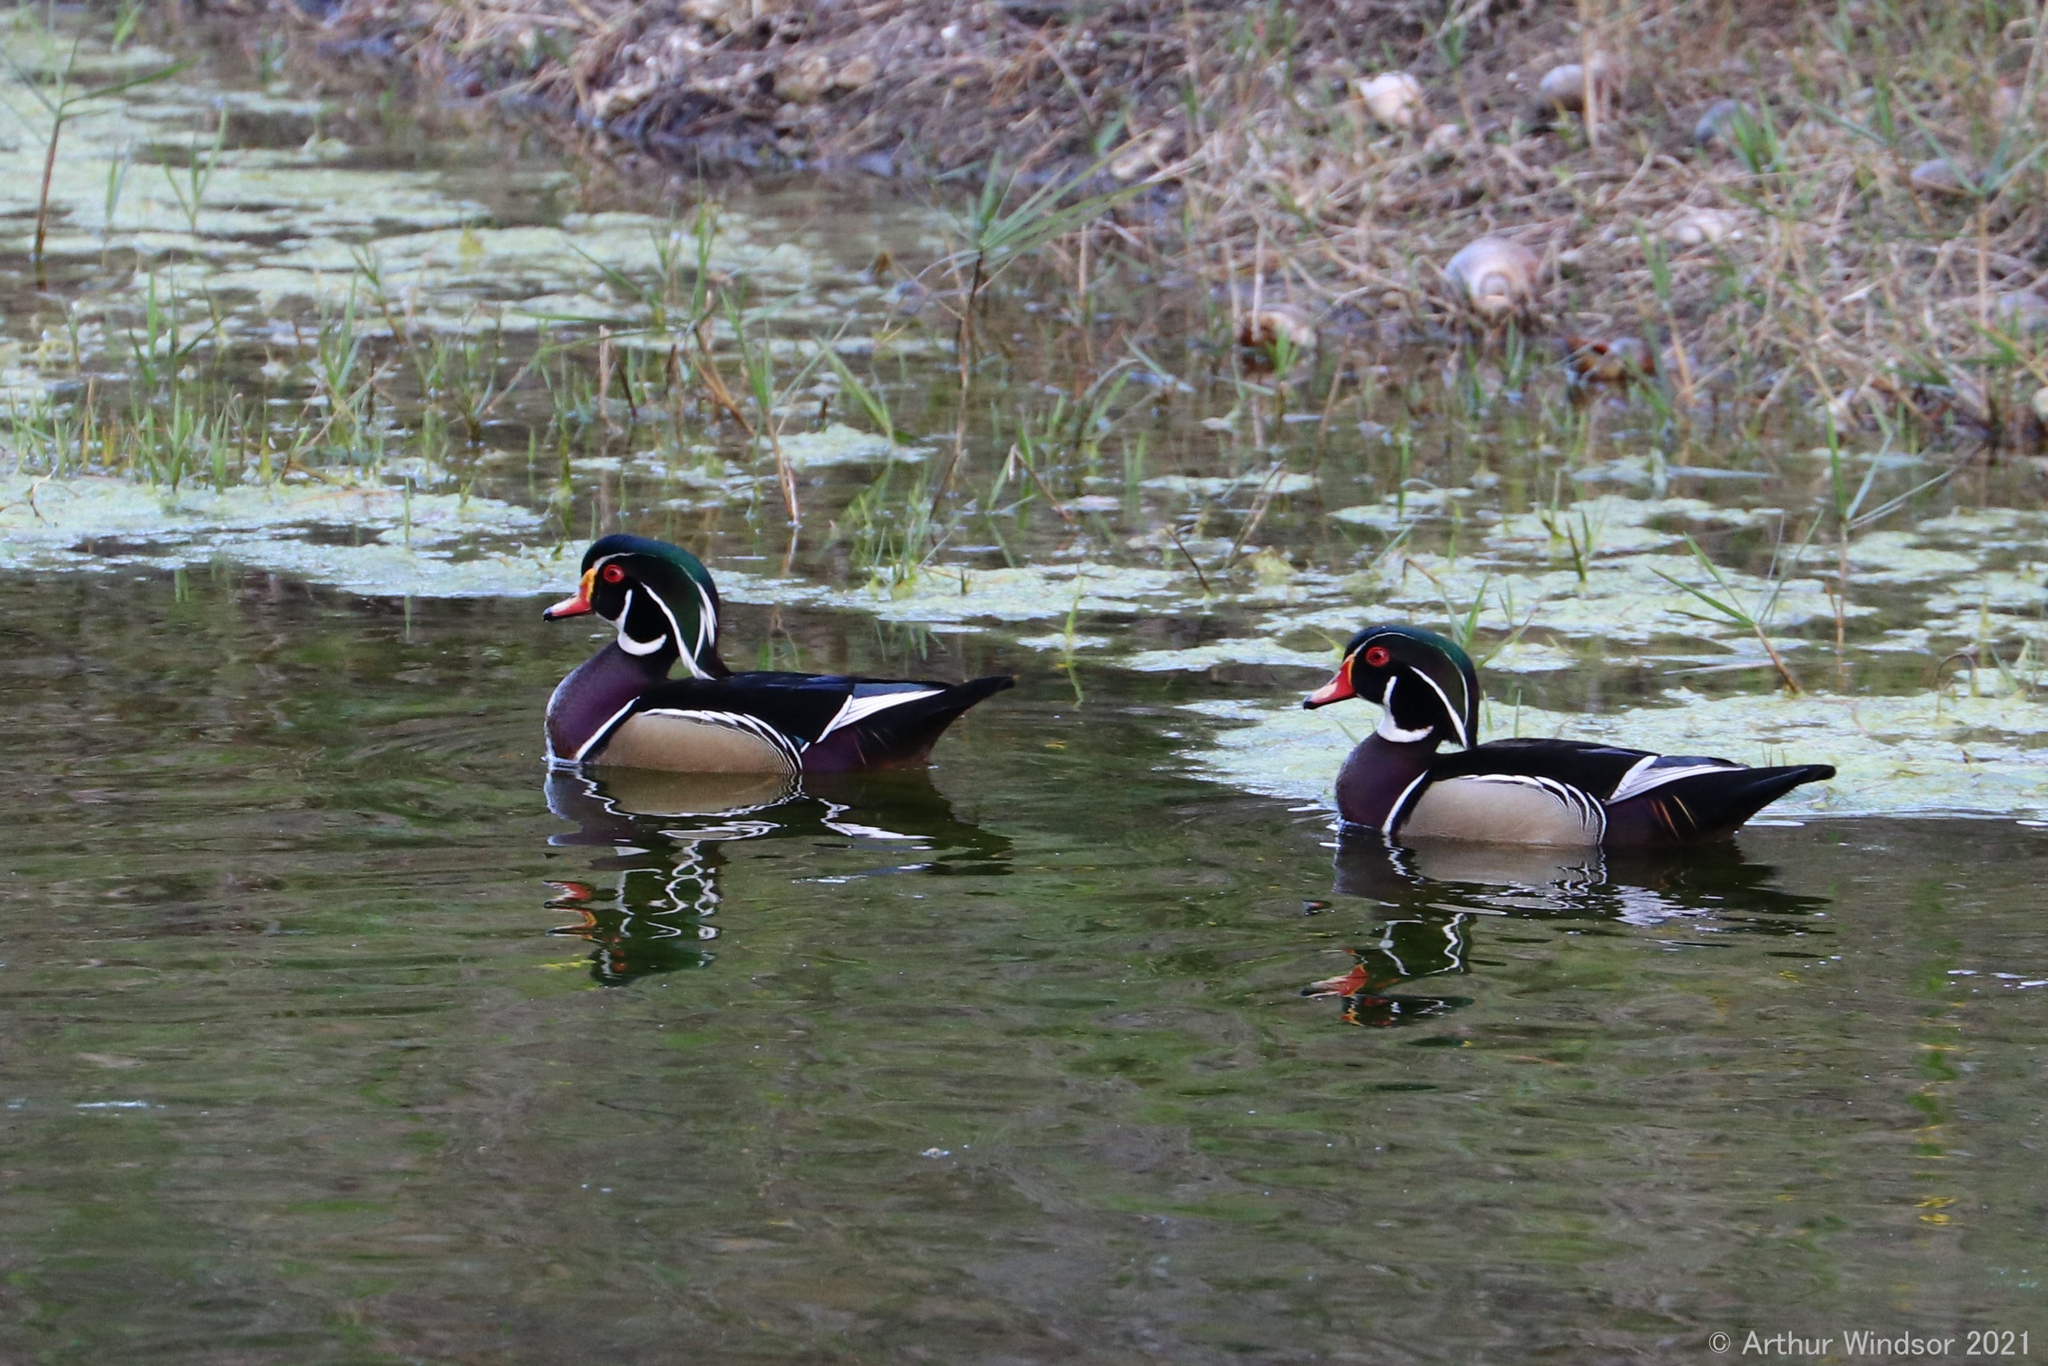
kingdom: Animalia
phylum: Chordata
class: Aves
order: Anseriformes
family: Anatidae
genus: Aix
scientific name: Aix sponsa
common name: Wood duck
